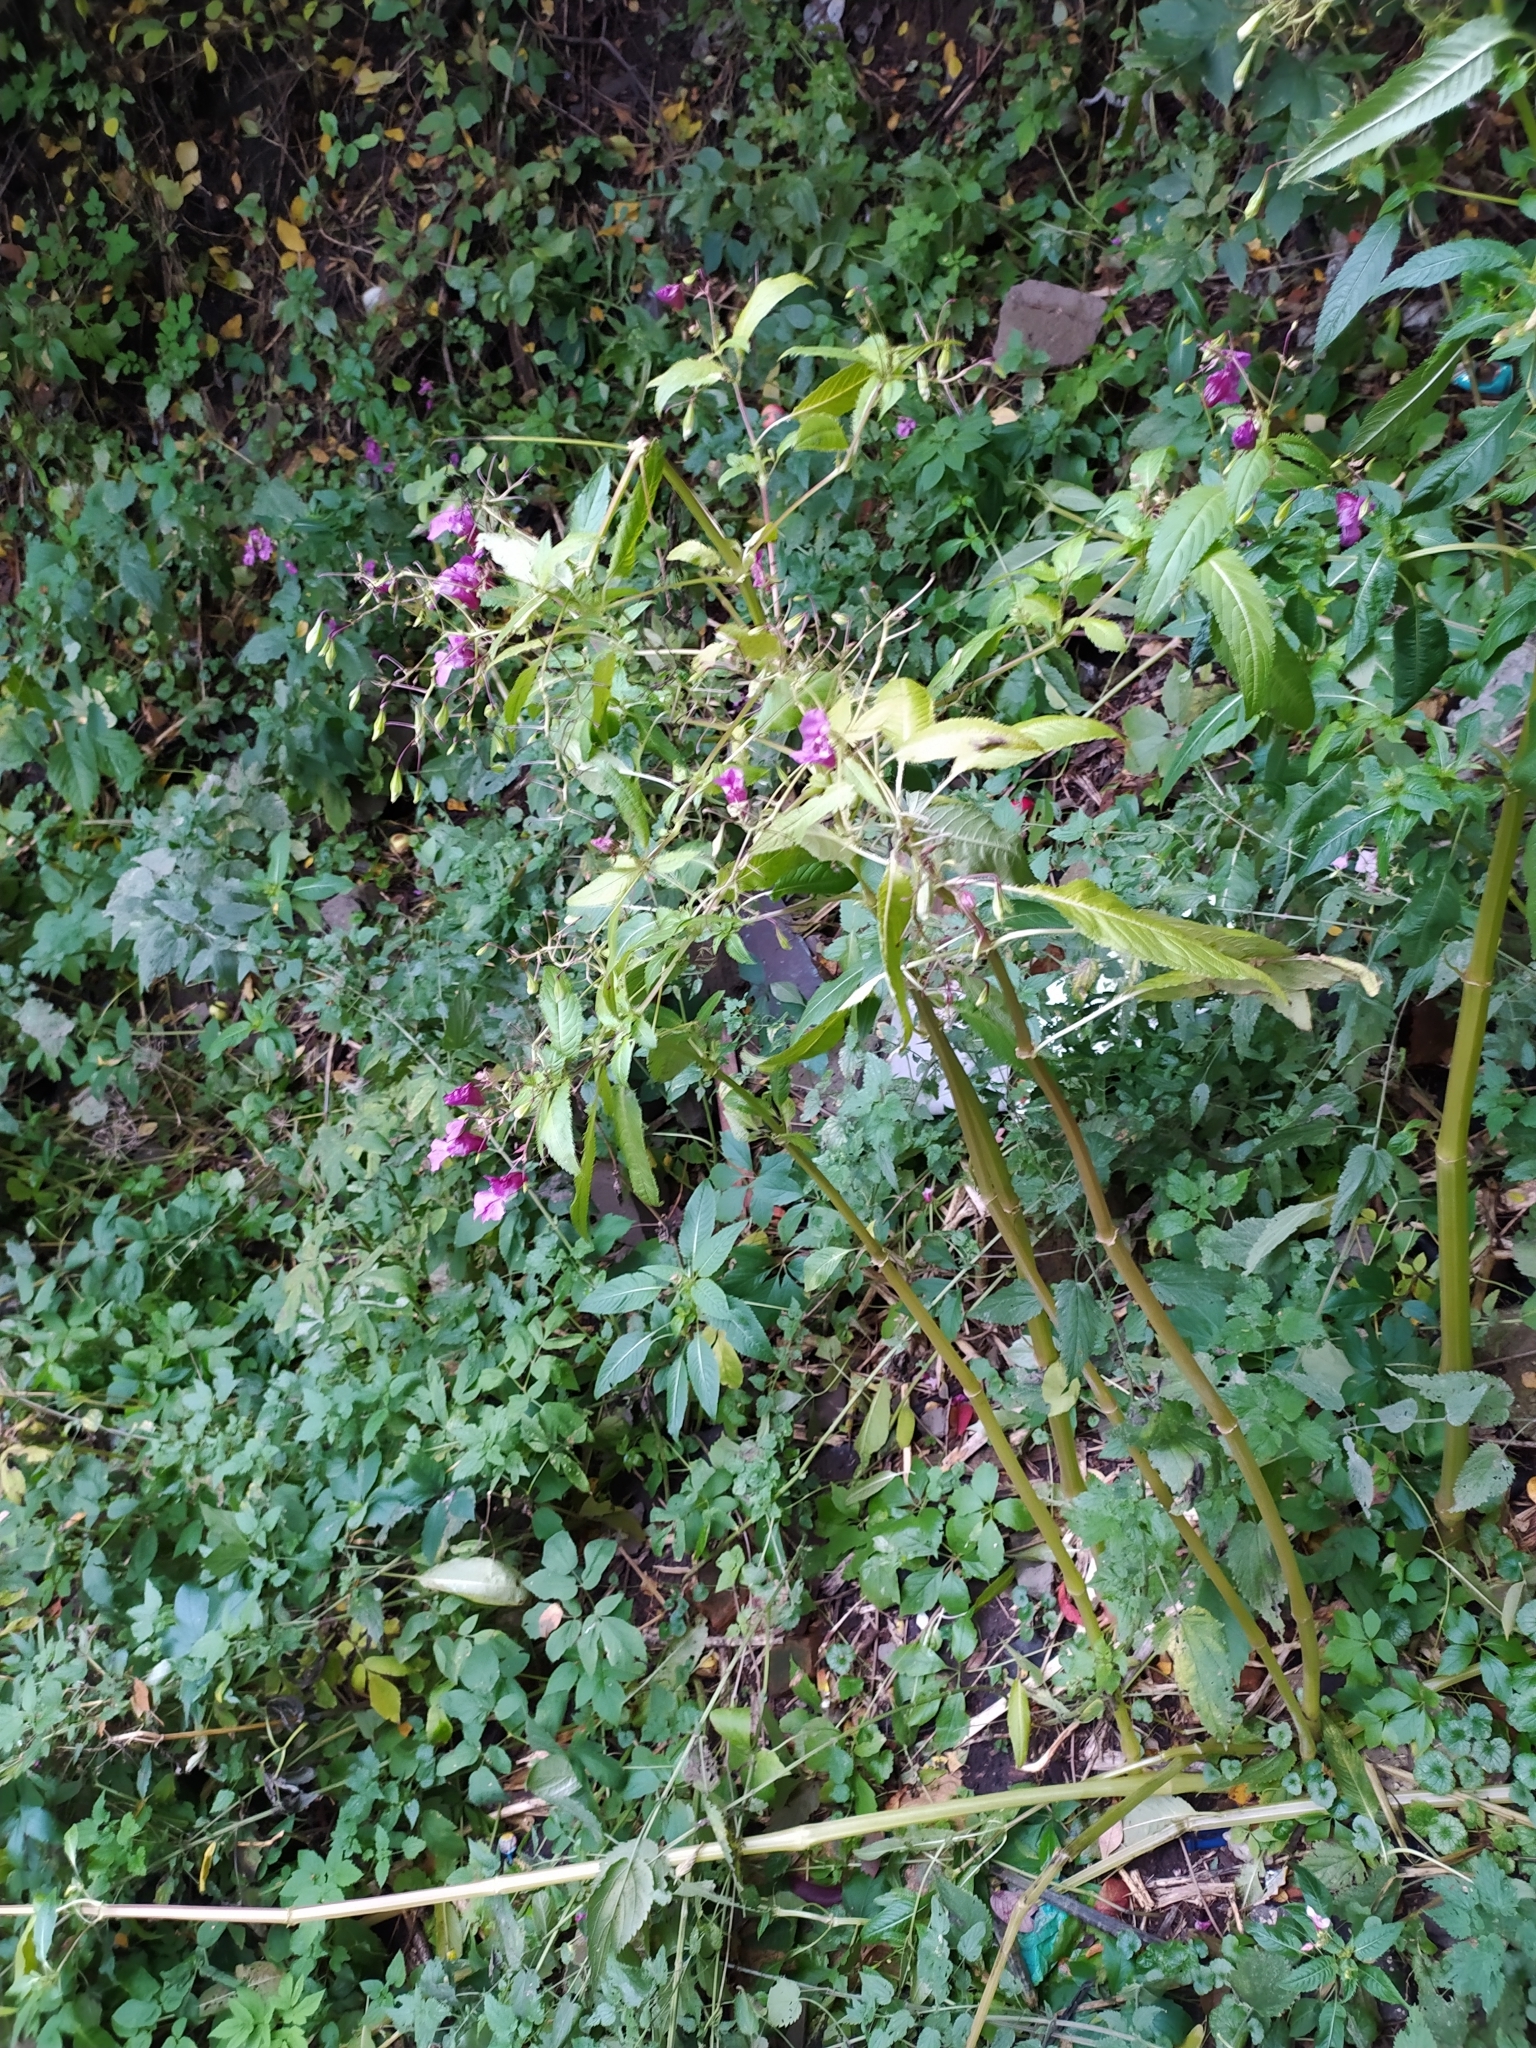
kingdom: Plantae
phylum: Tracheophyta
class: Magnoliopsida
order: Ericales
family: Balsaminaceae
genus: Impatiens
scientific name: Impatiens glandulifera
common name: Himalayan balsam
